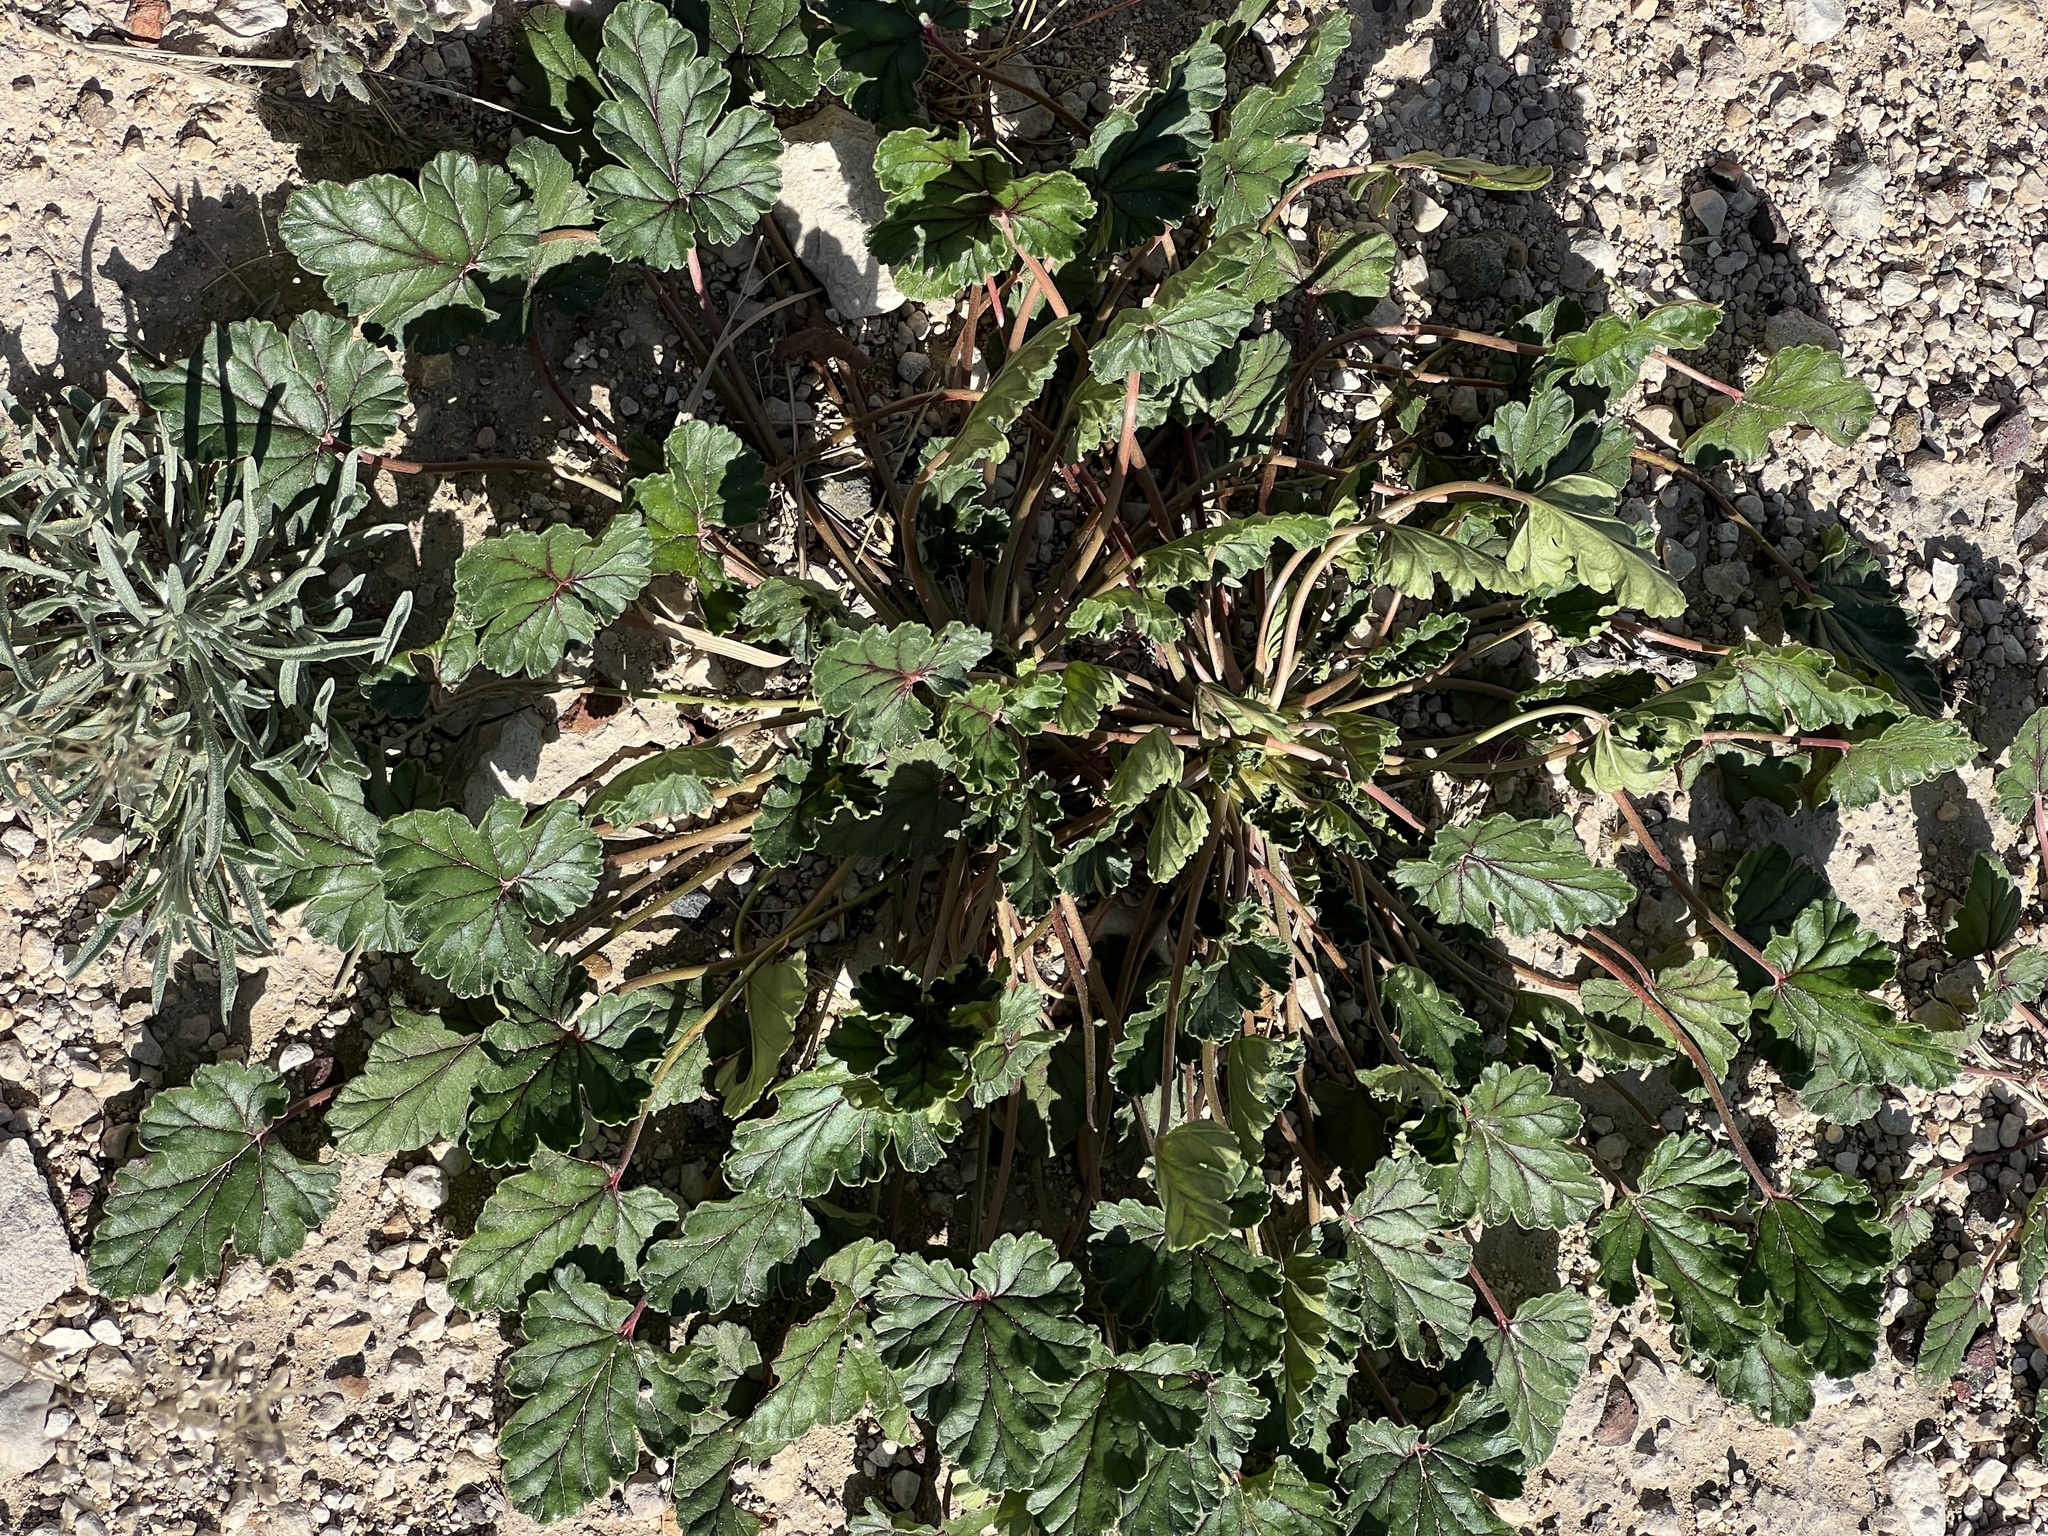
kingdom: Plantae
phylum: Tracheophyta
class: Magnoliopsida
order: Geraniales
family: Geraniaceae
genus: Erodium
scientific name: Erodium texanum
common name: Texas stork's-bill
